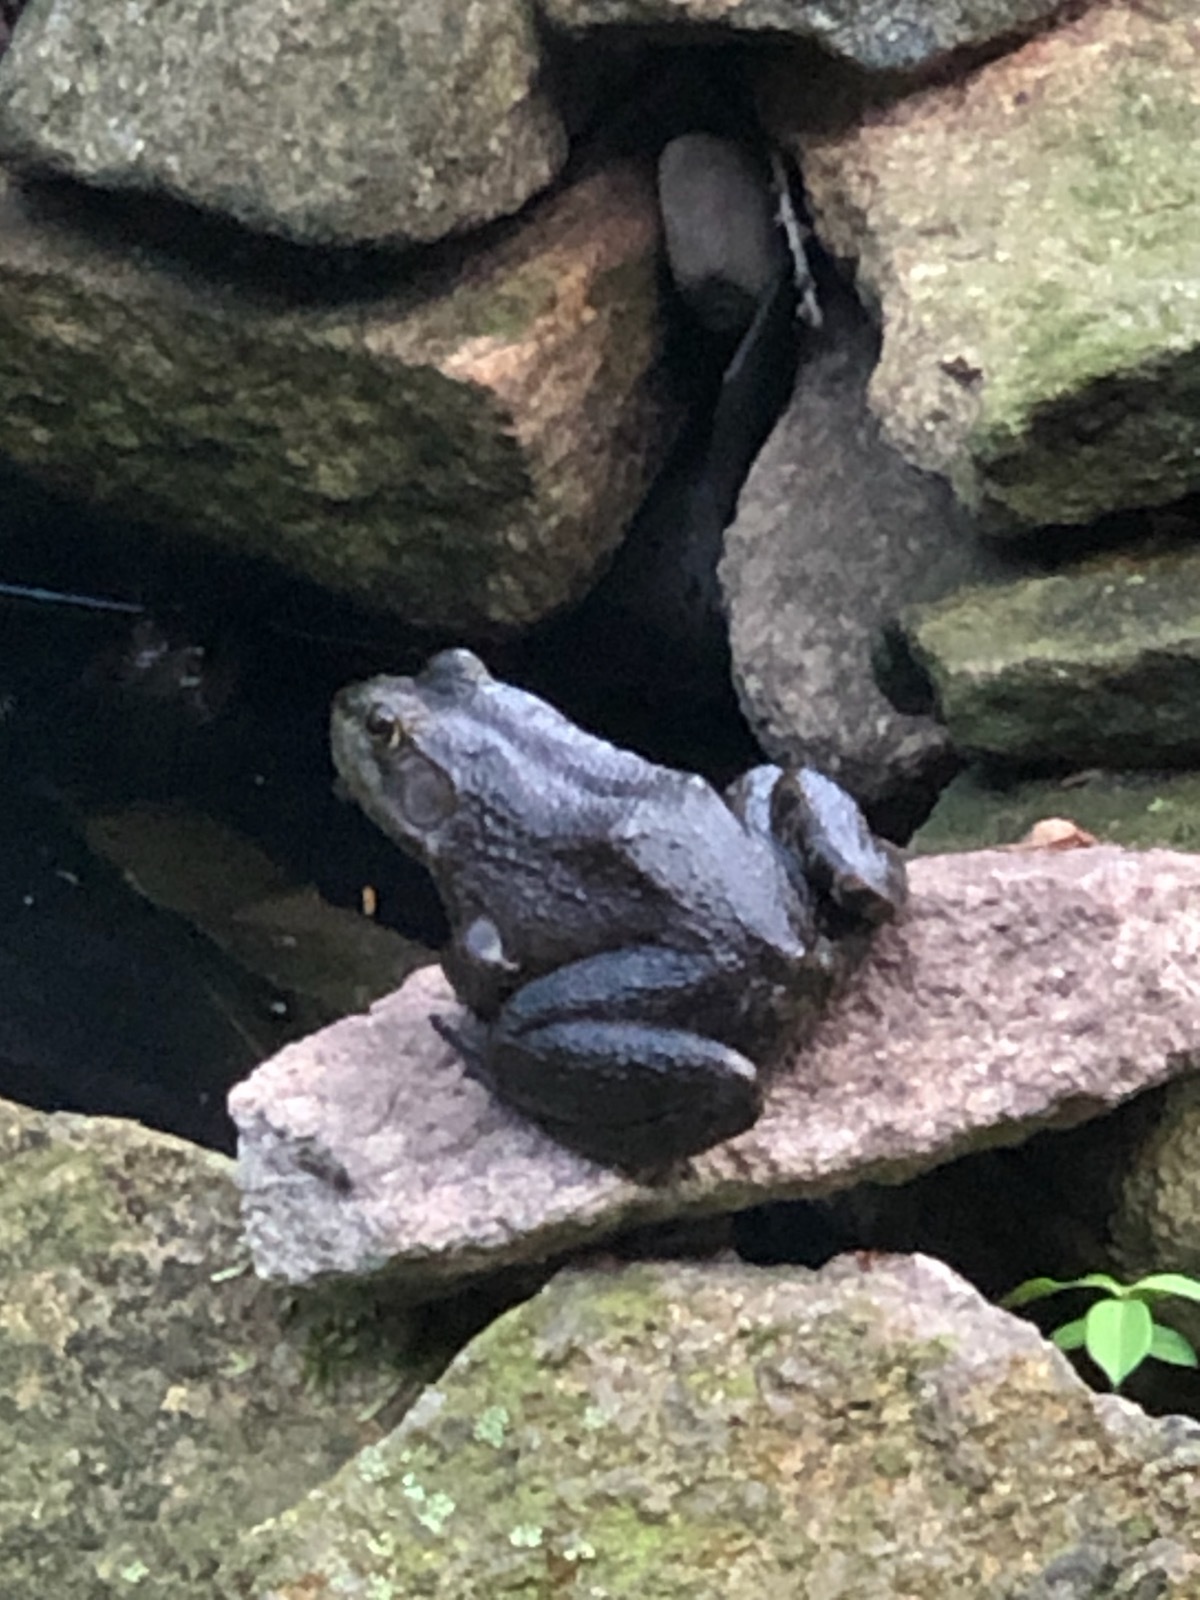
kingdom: Animalia
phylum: Chordata
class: Amphibia
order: Anura
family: Ranidae
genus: Lithobates
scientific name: Lithobates catesbeianus
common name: American bullfrog
